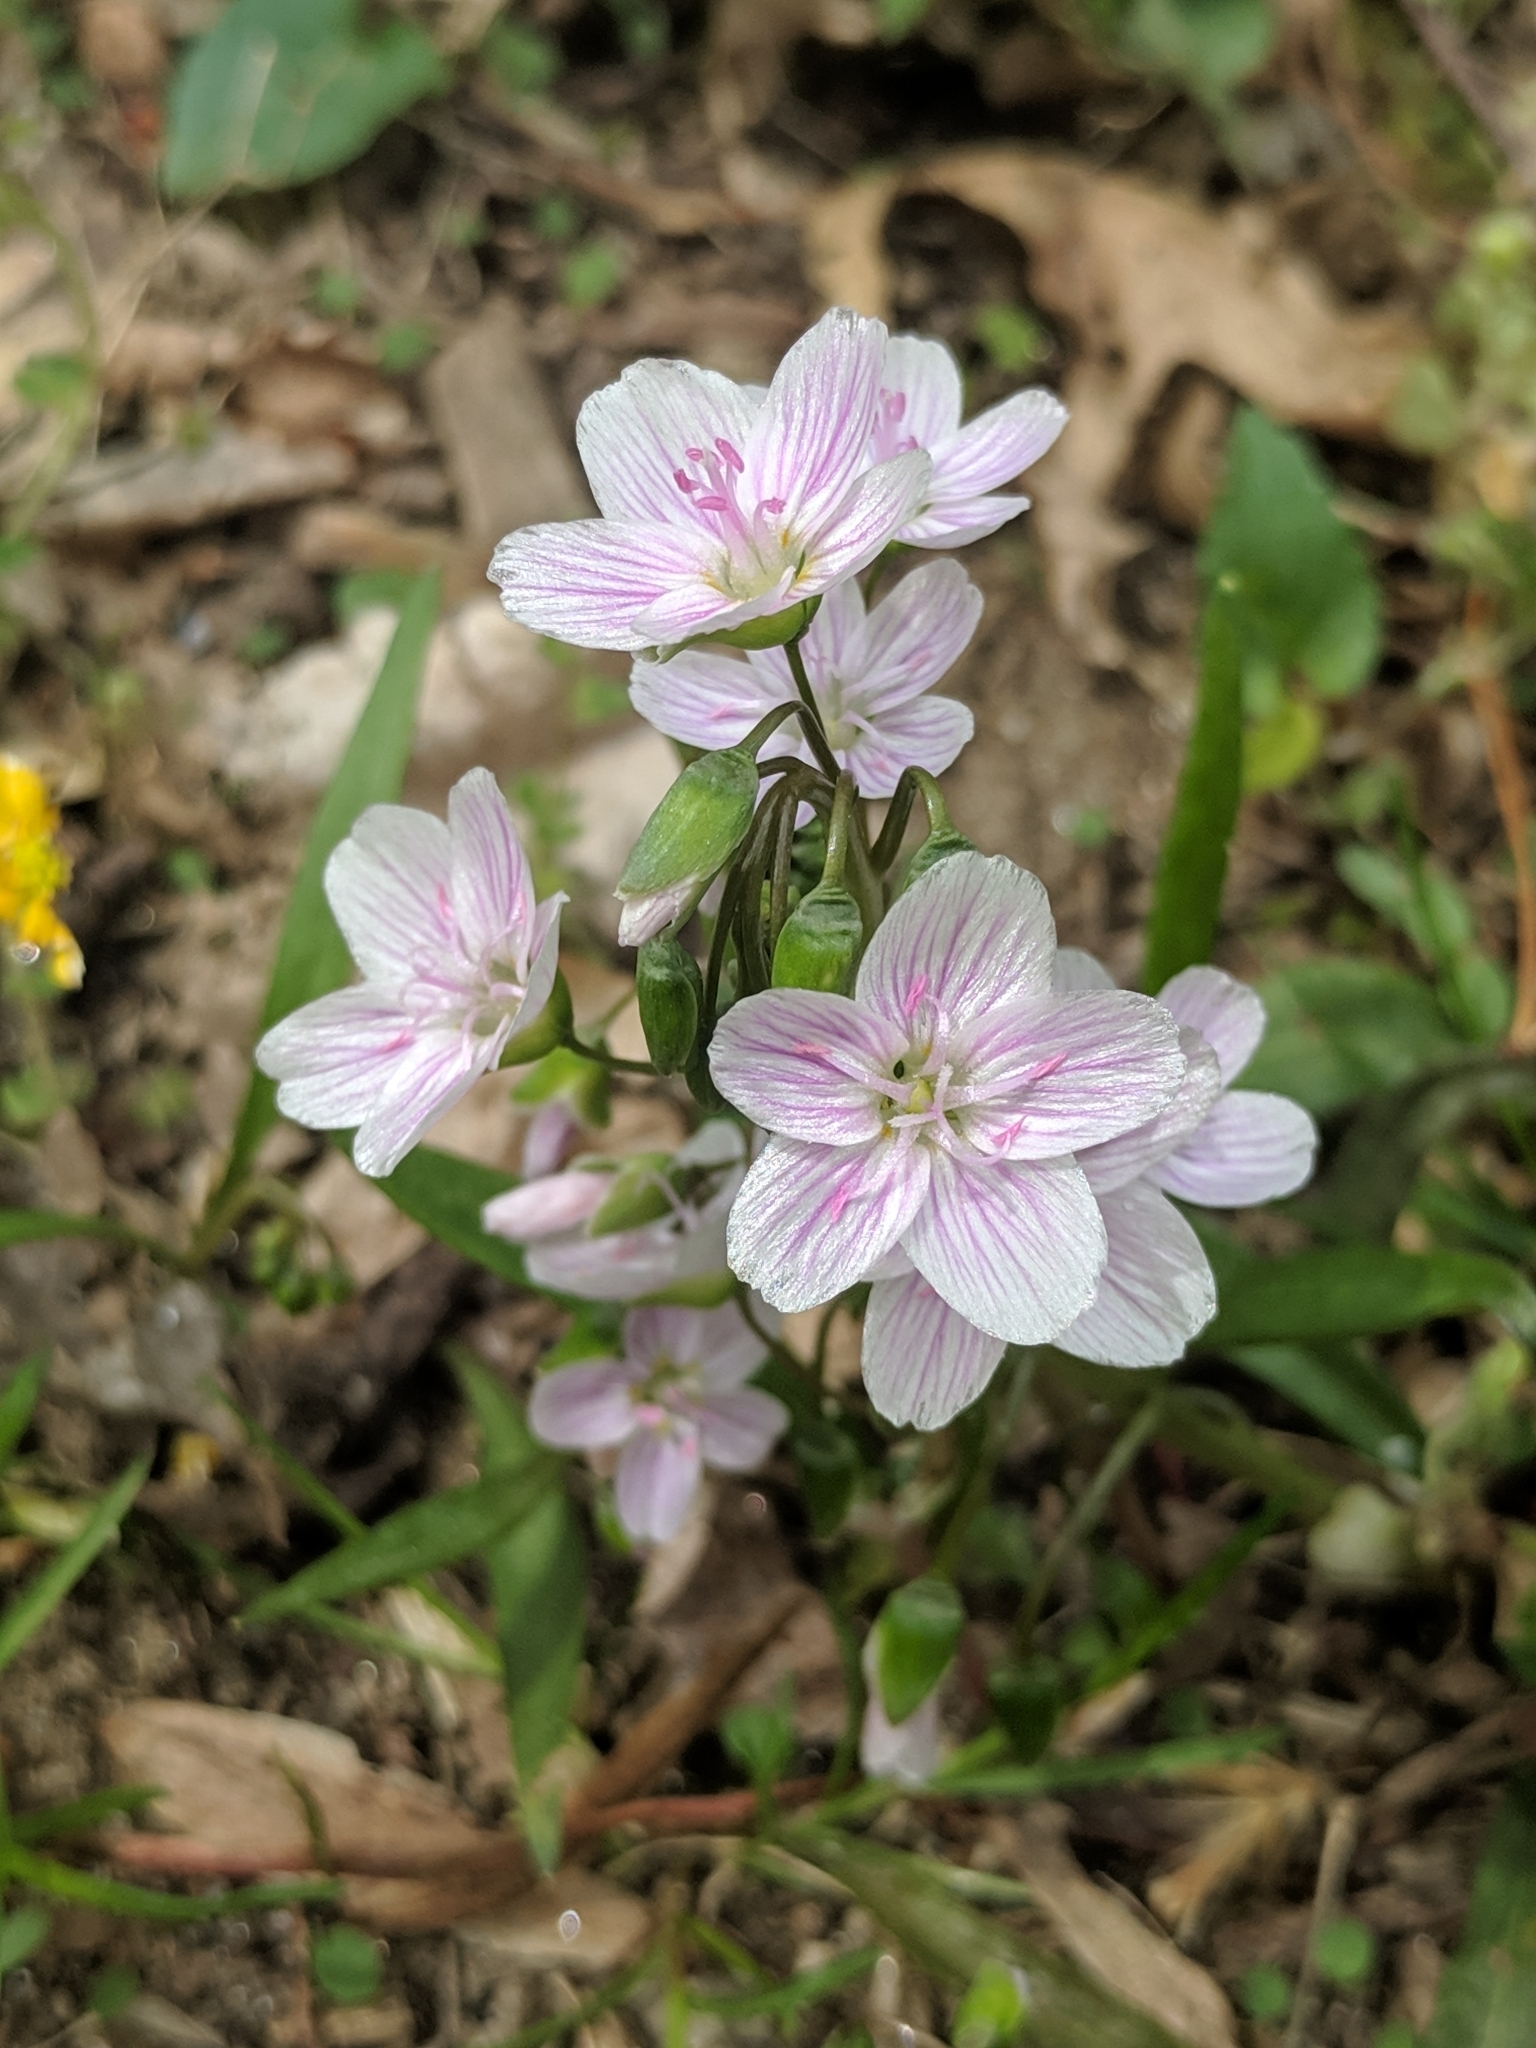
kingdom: Plantae
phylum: Tracheophyta
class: Magnoliopsida
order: Caryophyllales
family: Montiaceae
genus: Claytonia
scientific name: Claytonia virginica
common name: Virginia springbeauty
